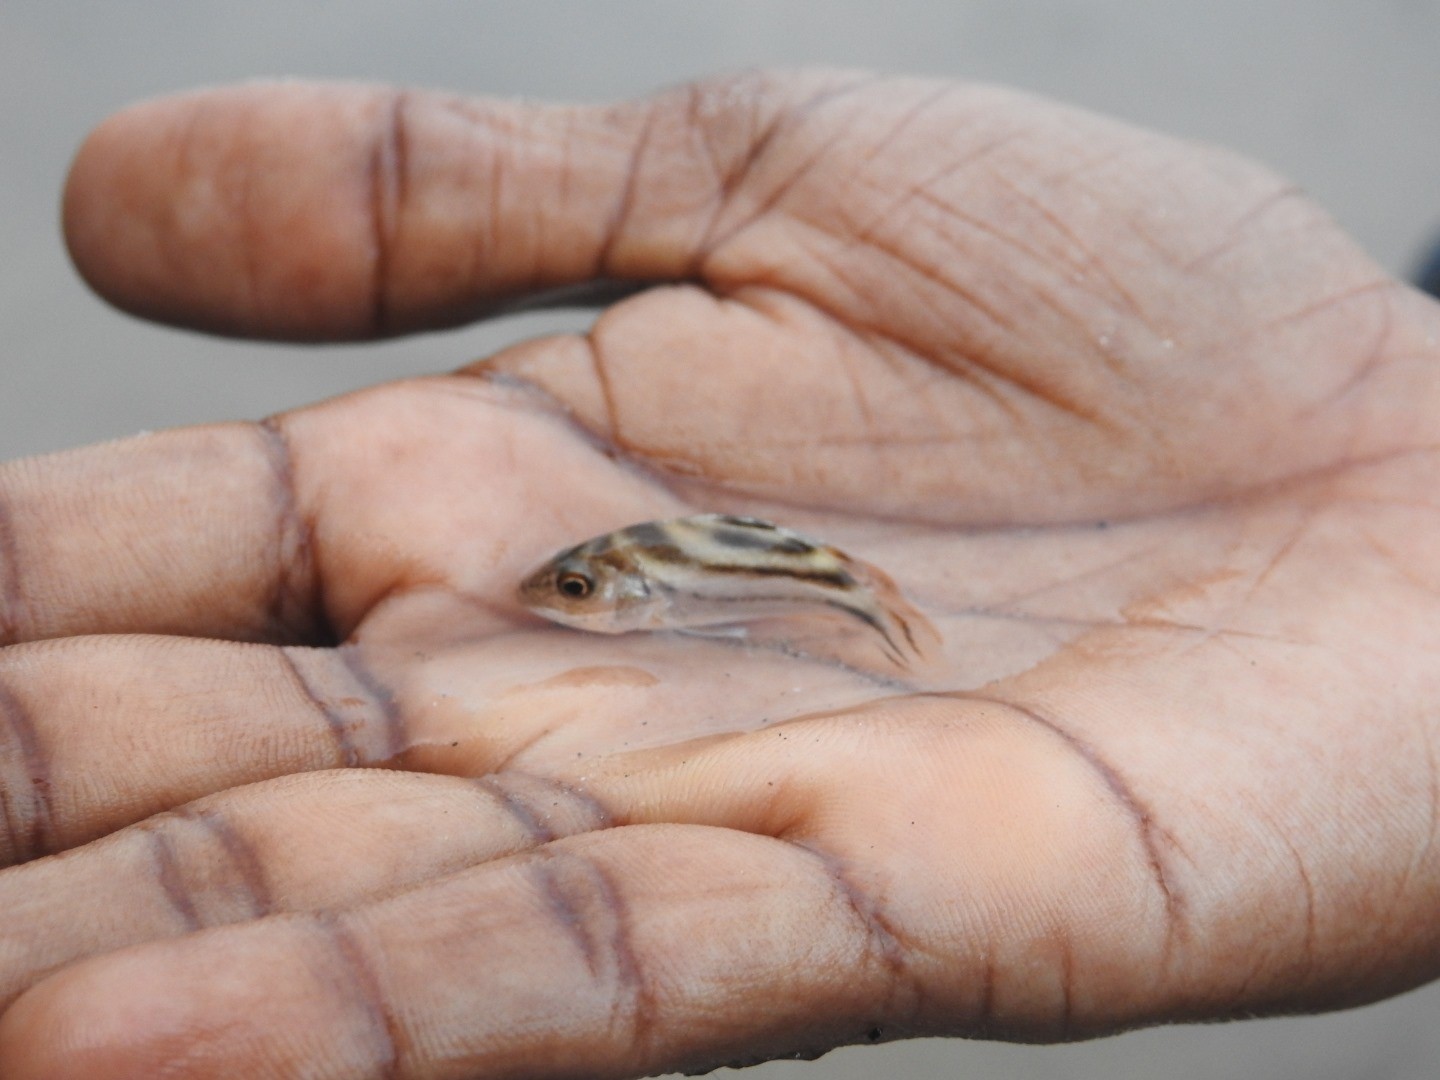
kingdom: Animalia
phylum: Chordata
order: Perciformes
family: Terapontidae
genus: Terapon
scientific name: Terapon jarbua
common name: Jarbua terapon
